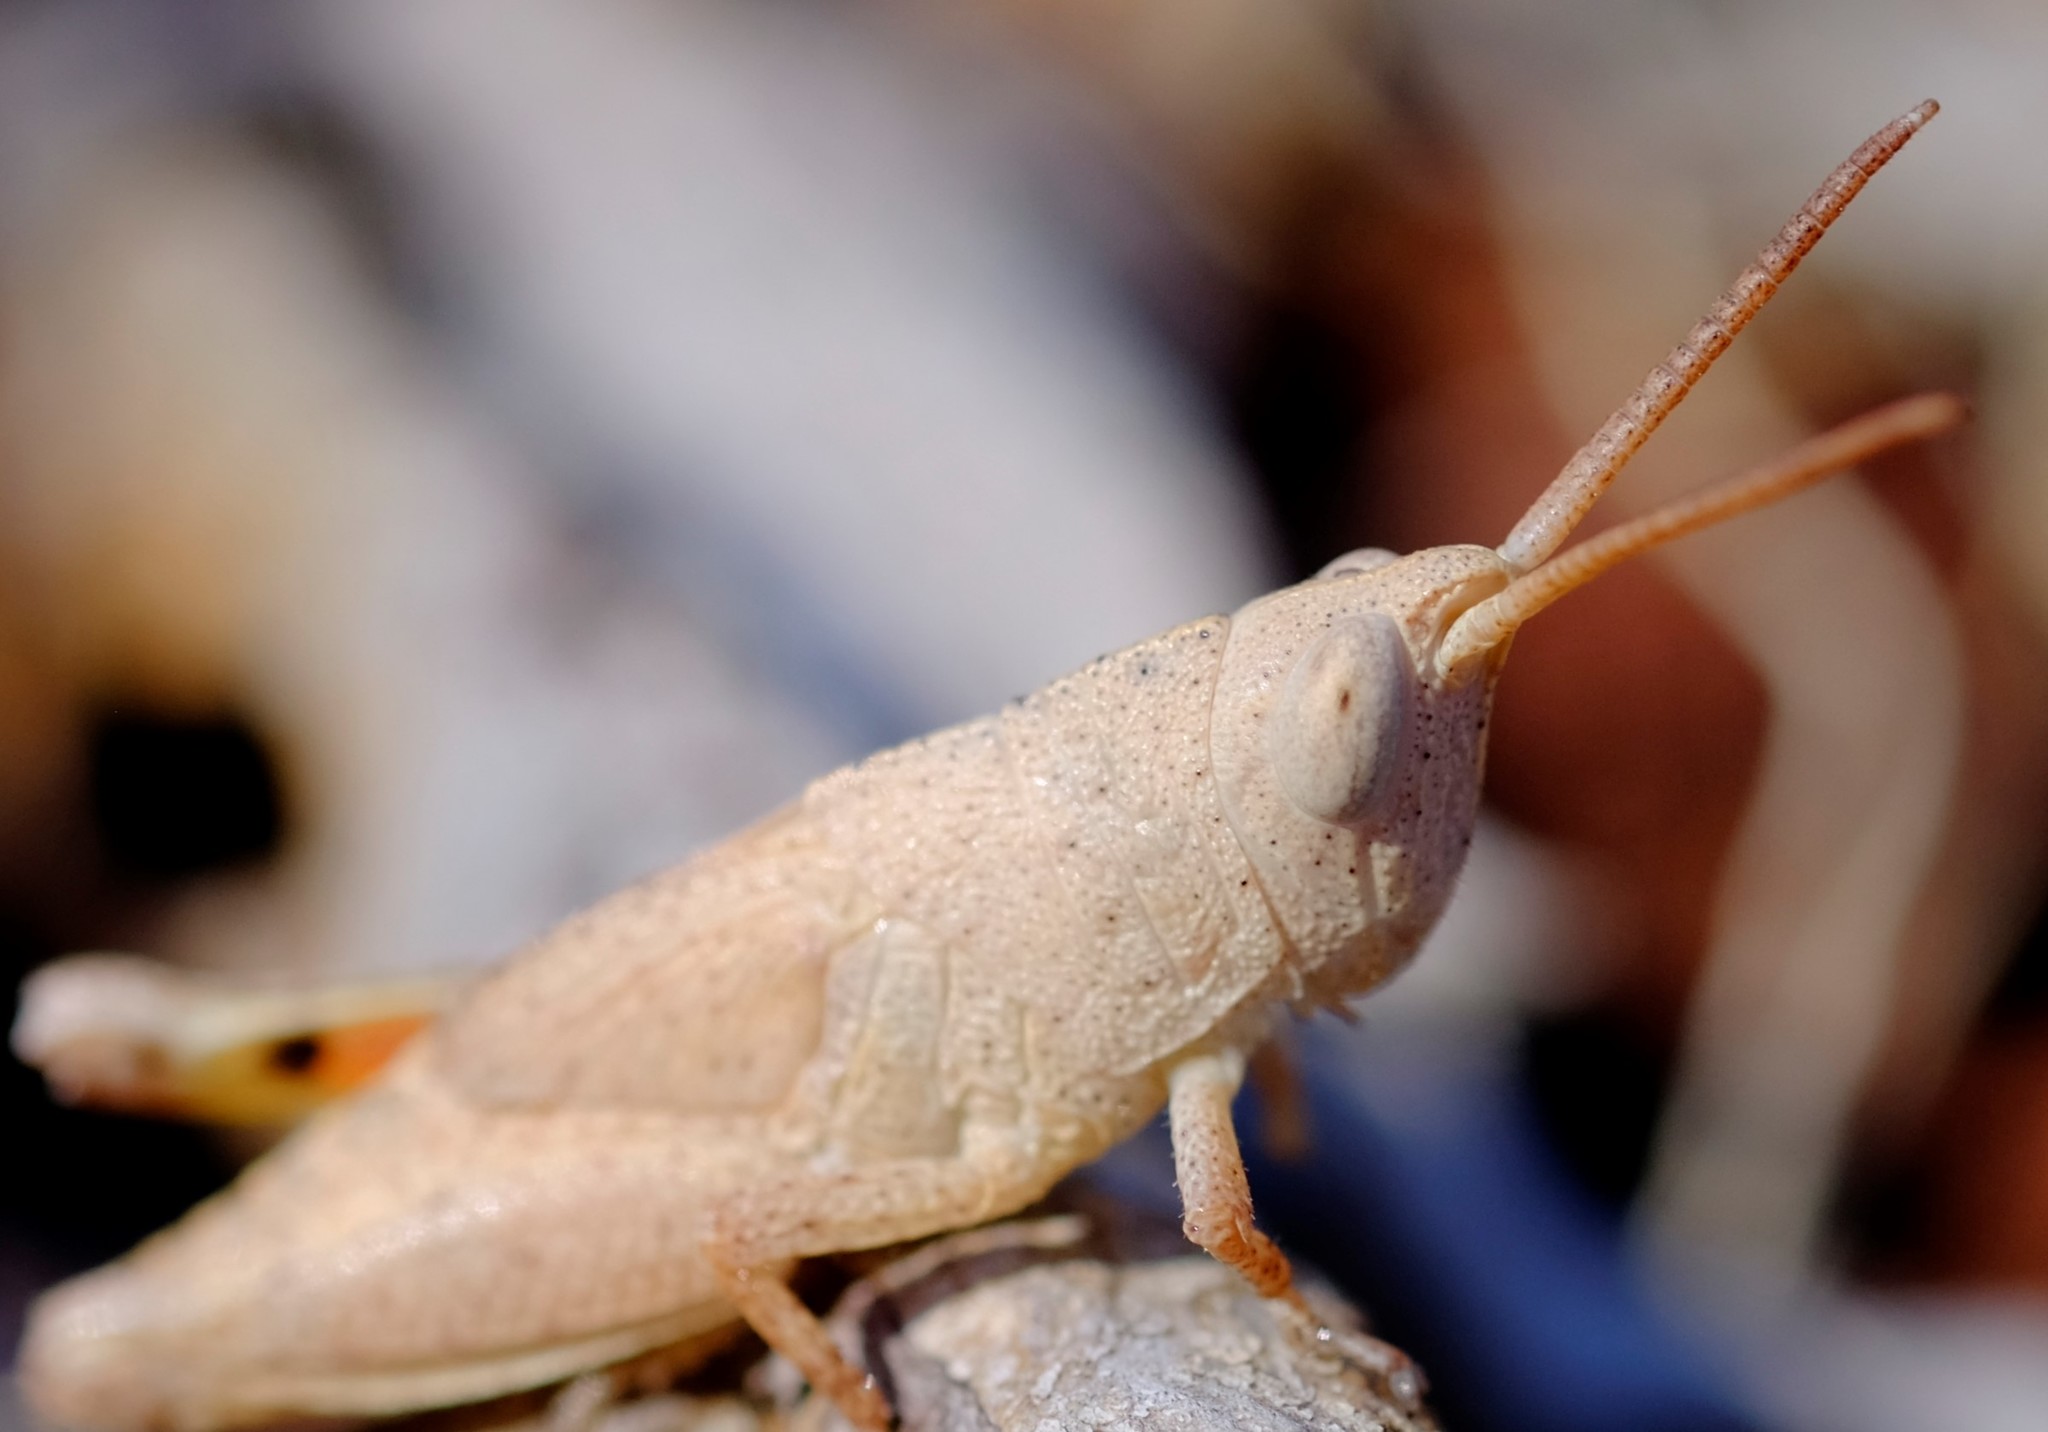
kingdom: Animalia
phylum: Arthropoda
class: Insecta
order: Orthoptera
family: Acrididae
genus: Goniaea
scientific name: Goniaea opomaloides
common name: Mimetic gumleaf grasshopper
